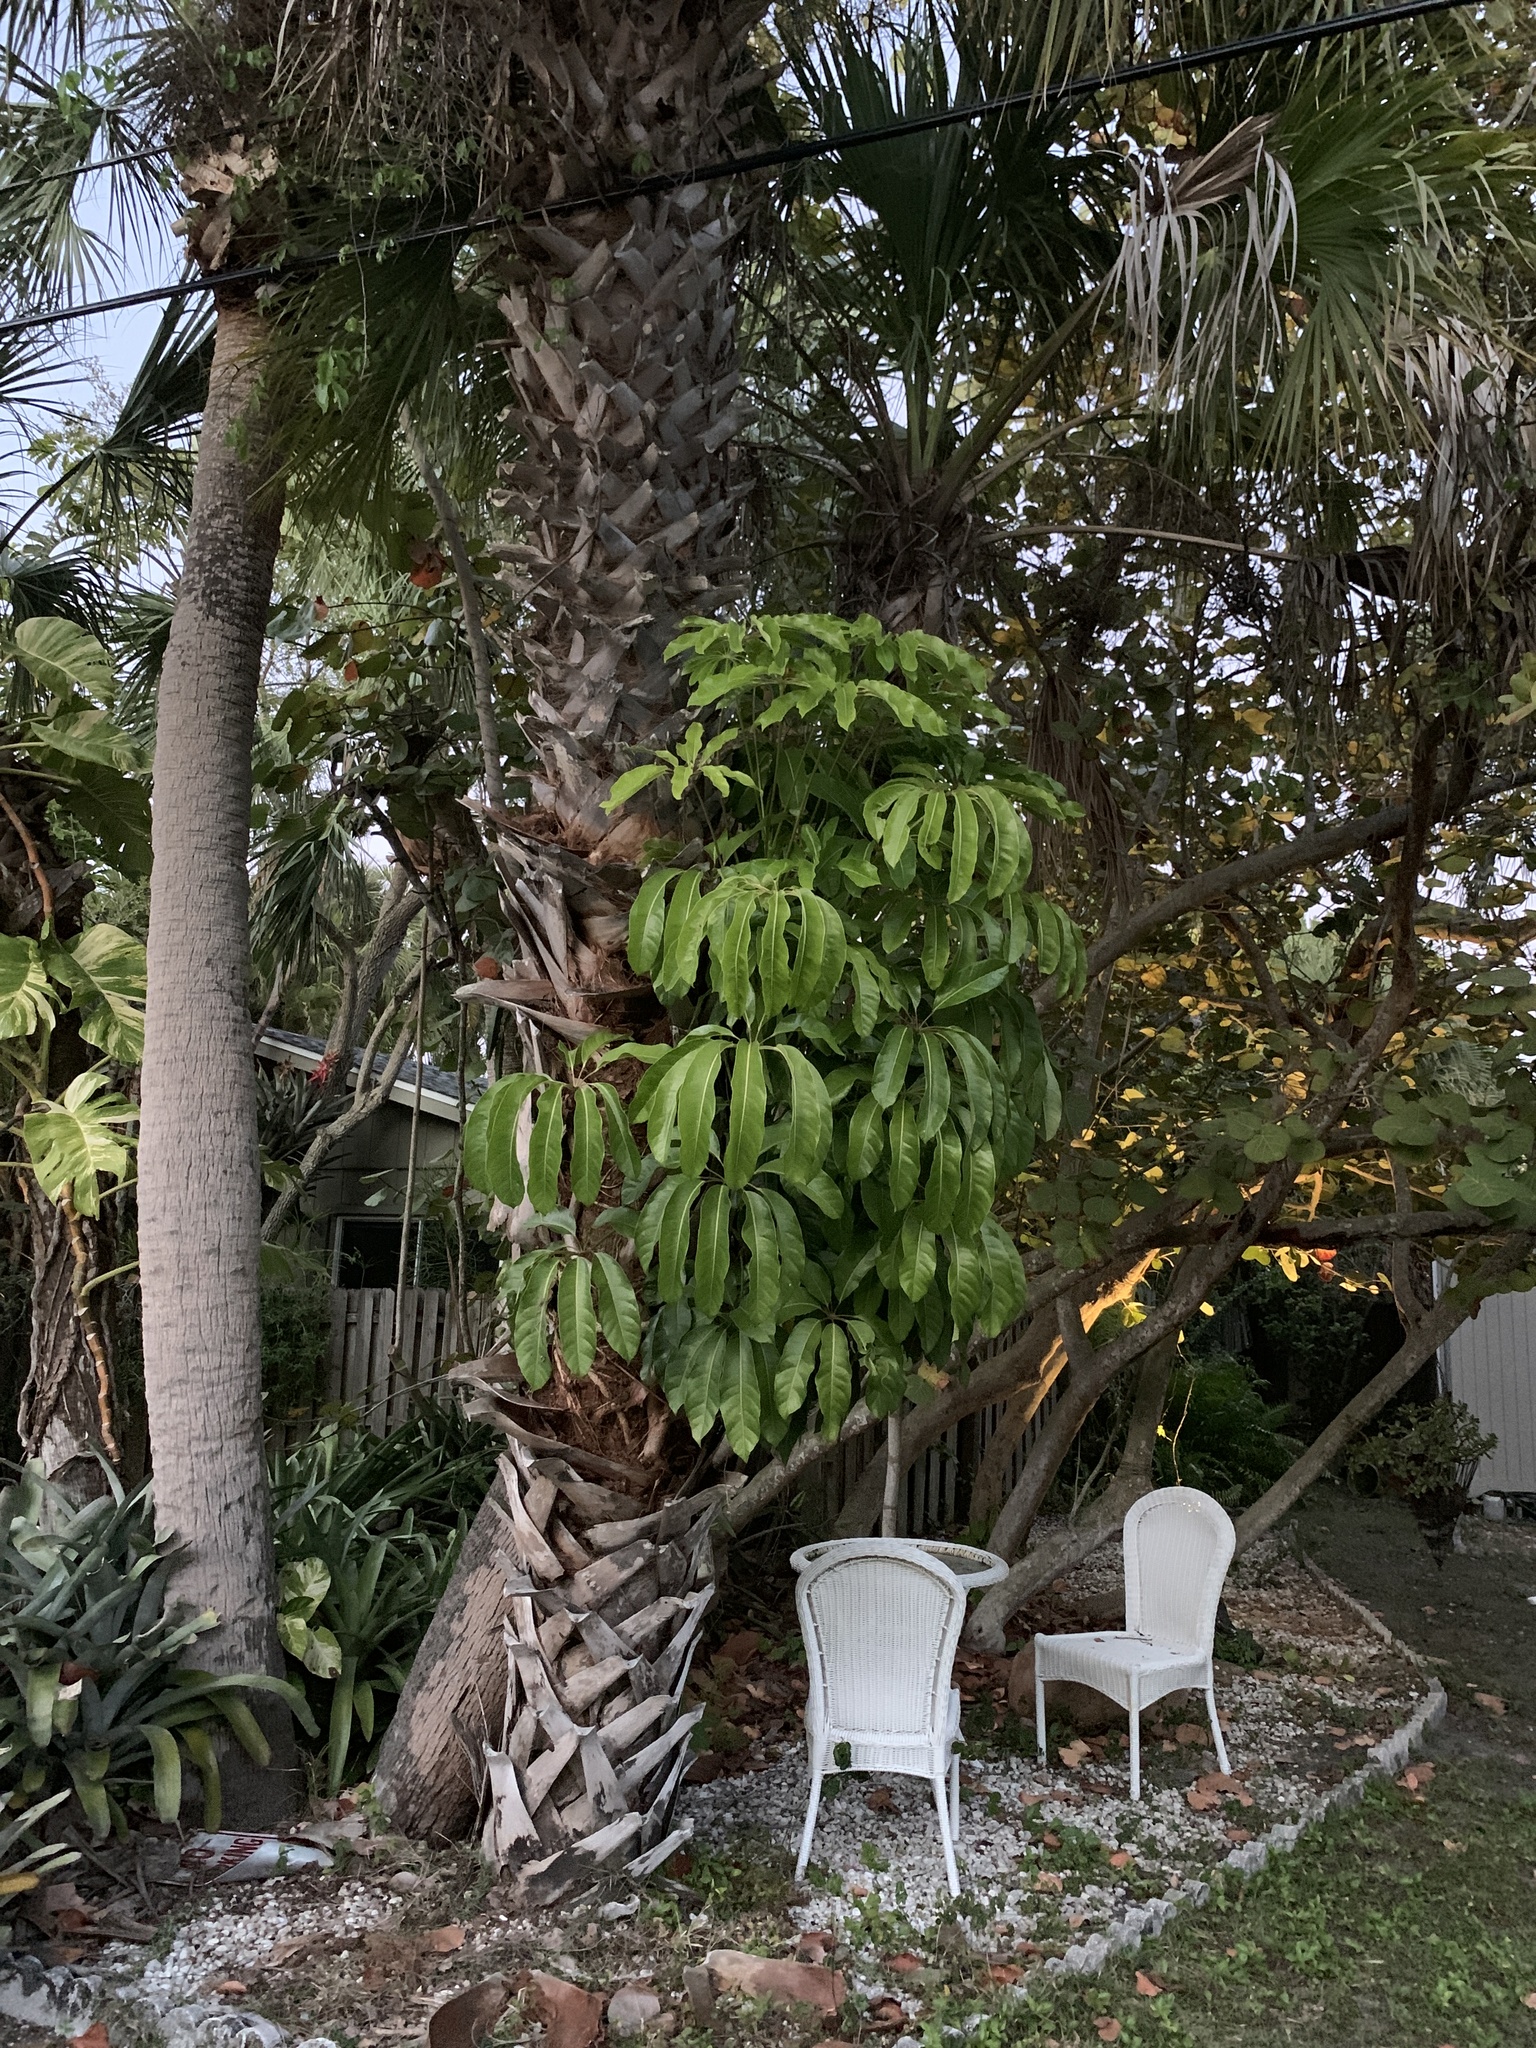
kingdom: Plantae
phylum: Tracheophyta
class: Magnoliopsida
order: Apiales
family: Araliaceae
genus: Heptapleurum
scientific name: Heptapleurum actinophyllum
